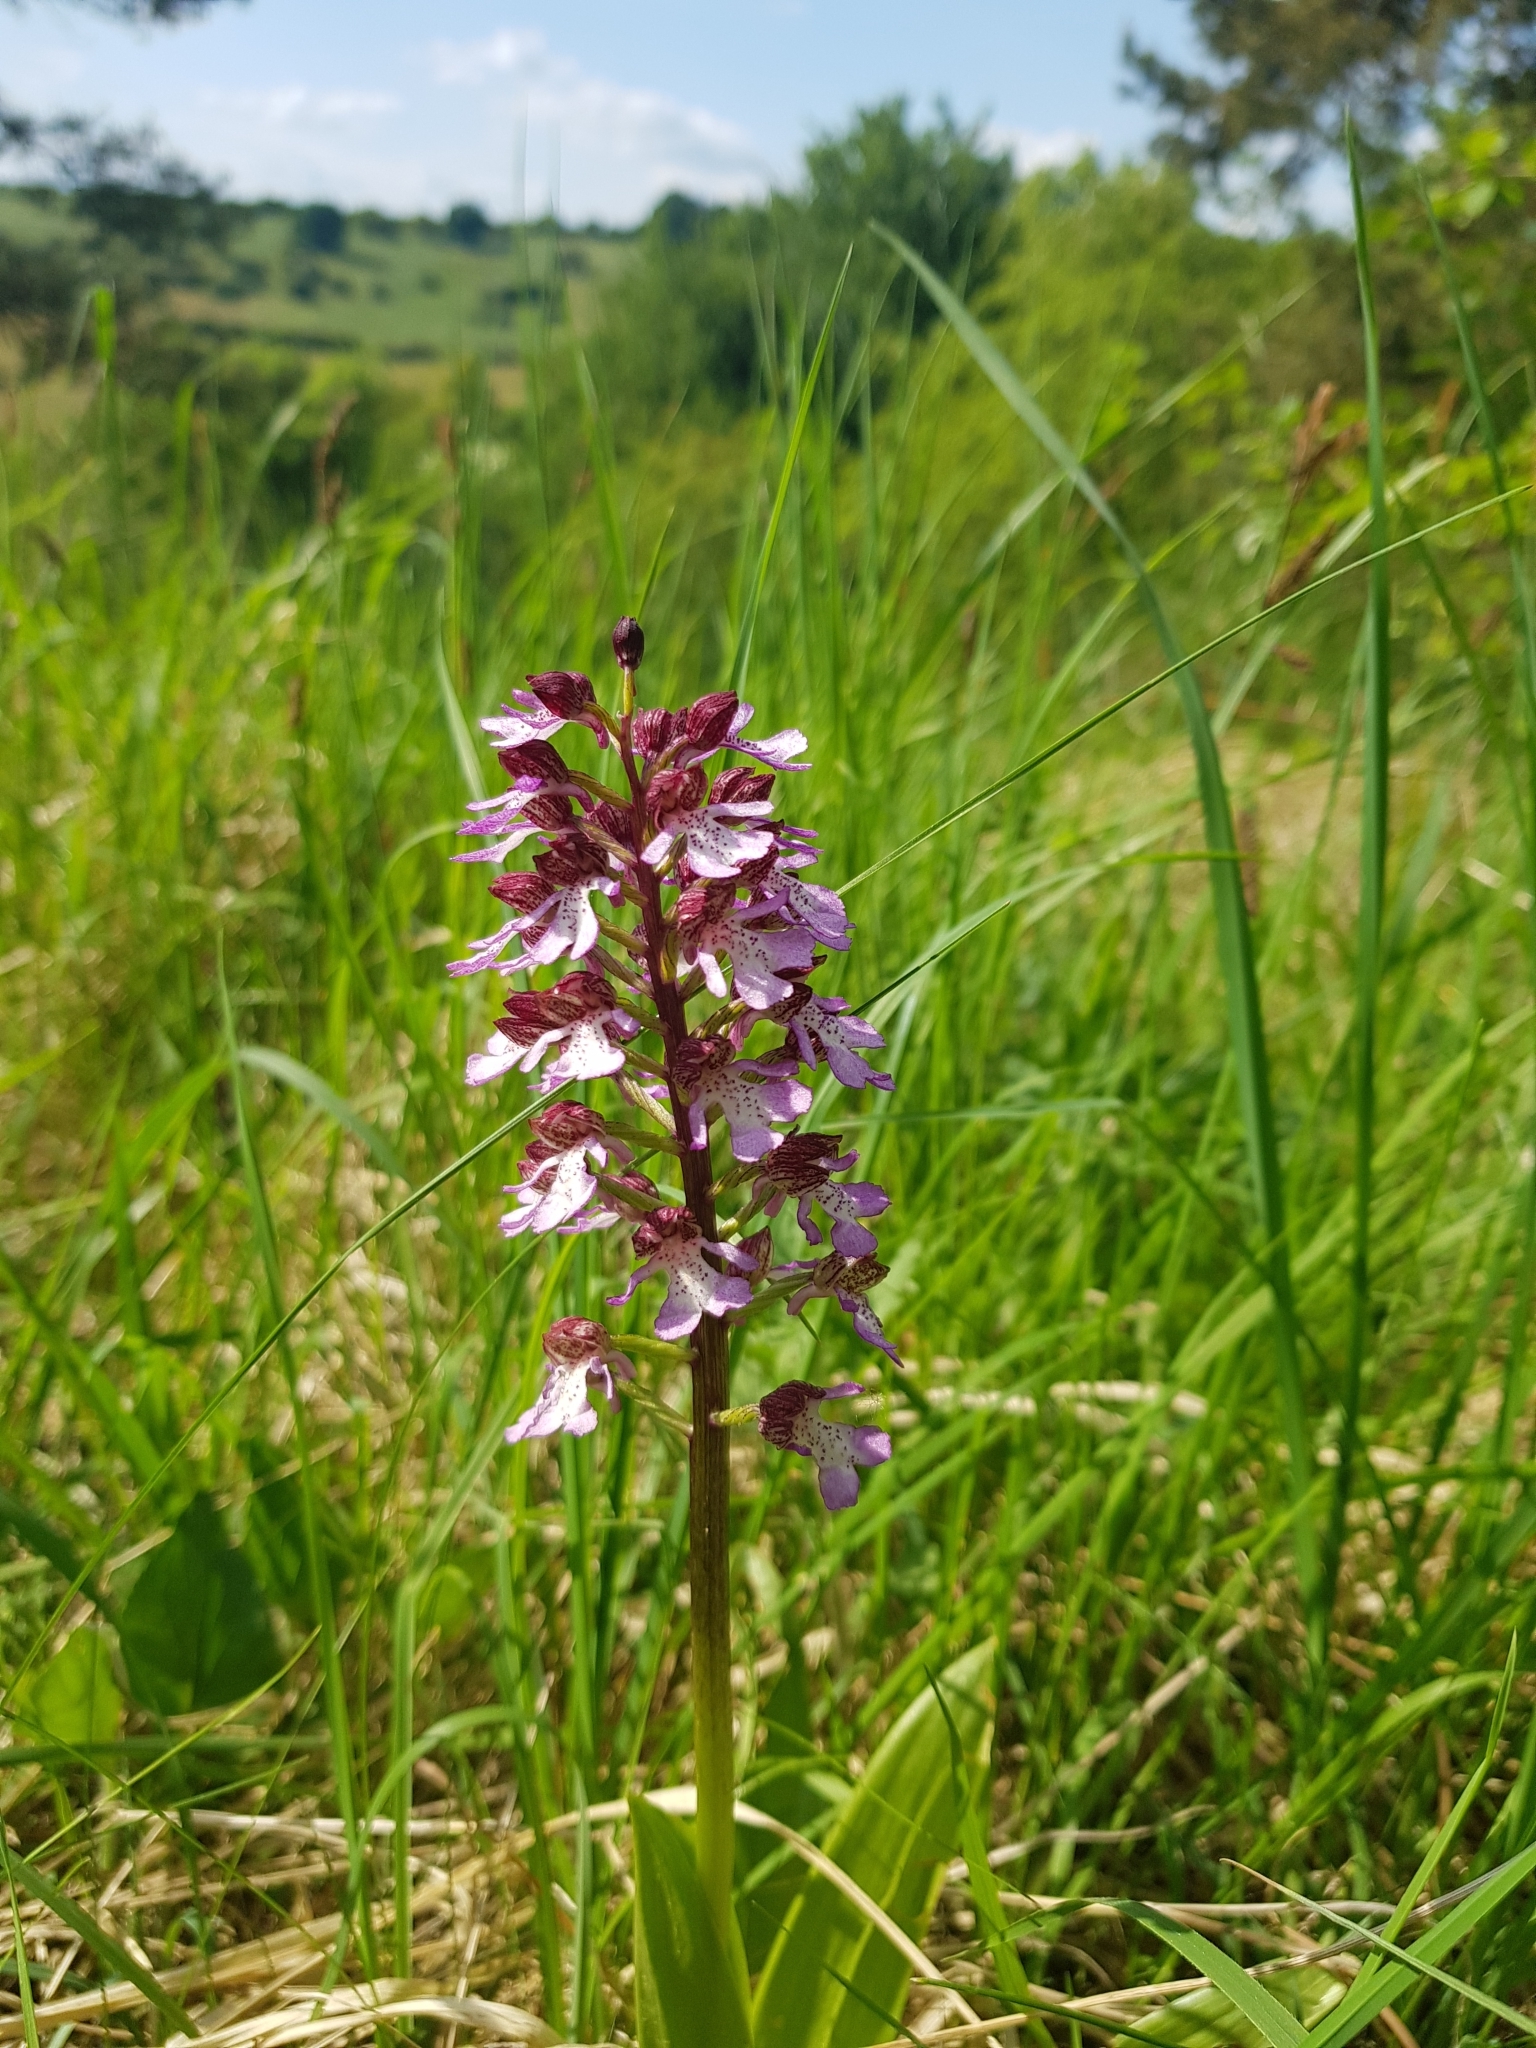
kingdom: Plantae
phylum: Tracheophyta
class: Liliopsida
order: Asparagales
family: Orchidaceae
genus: Orchis
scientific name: Orchis purpurea
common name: Lady orchid
